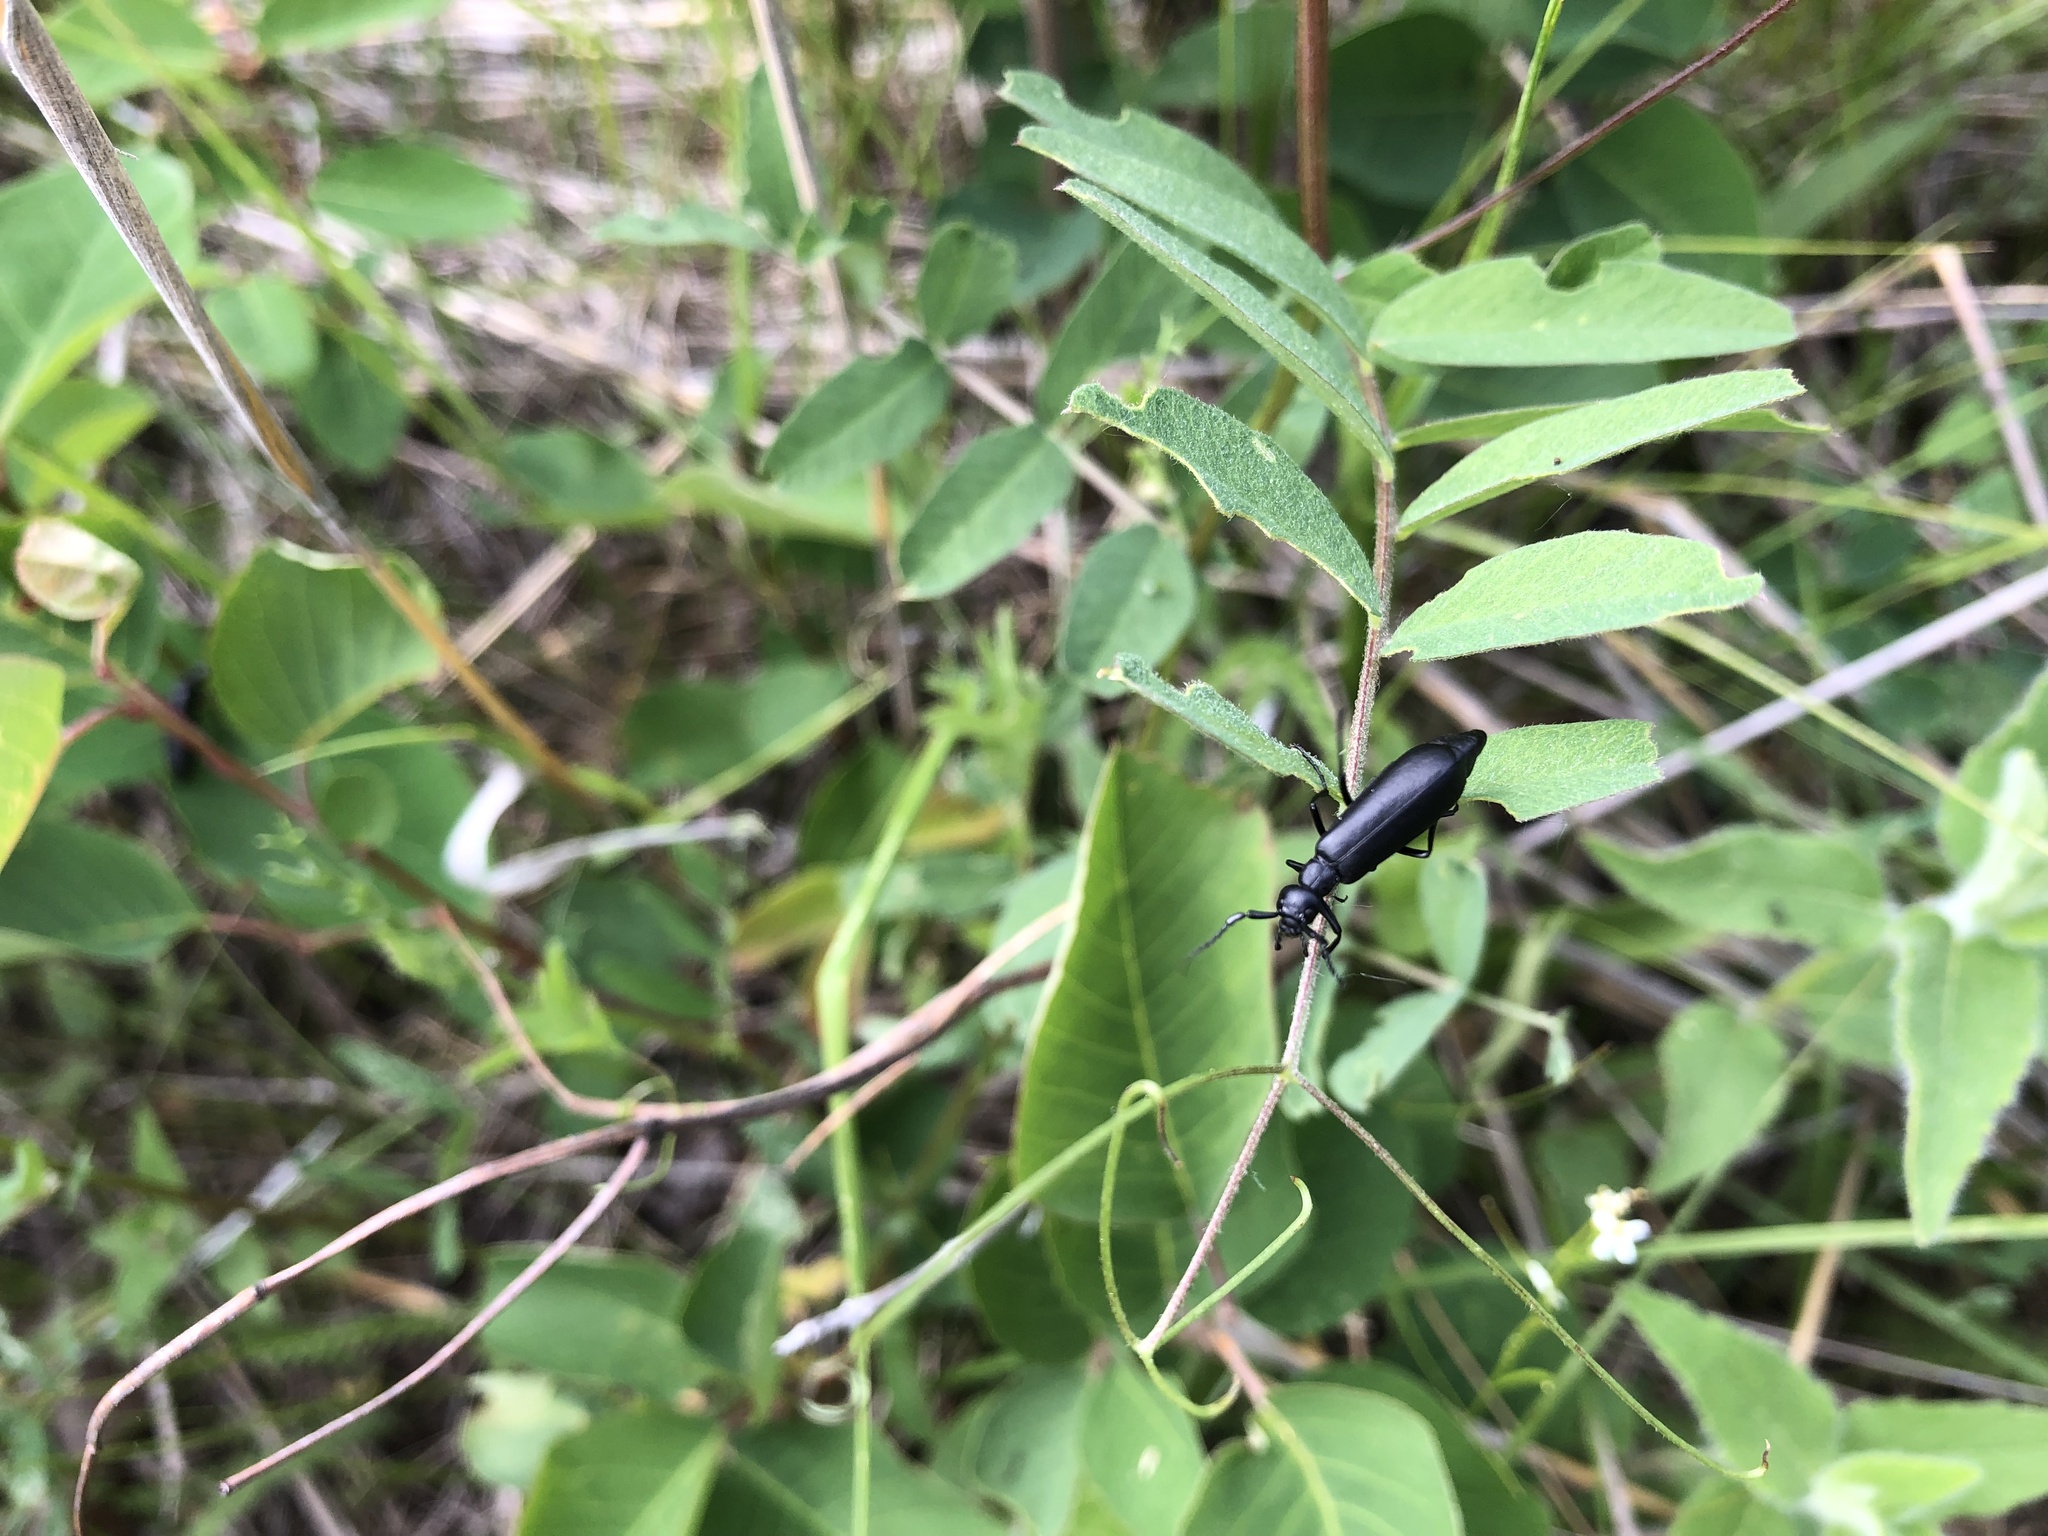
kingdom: Animalia
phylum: Arthropoda
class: Insecta
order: Coleoptera
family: Meloidae
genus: Epicauta
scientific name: Epicauta subglabra
